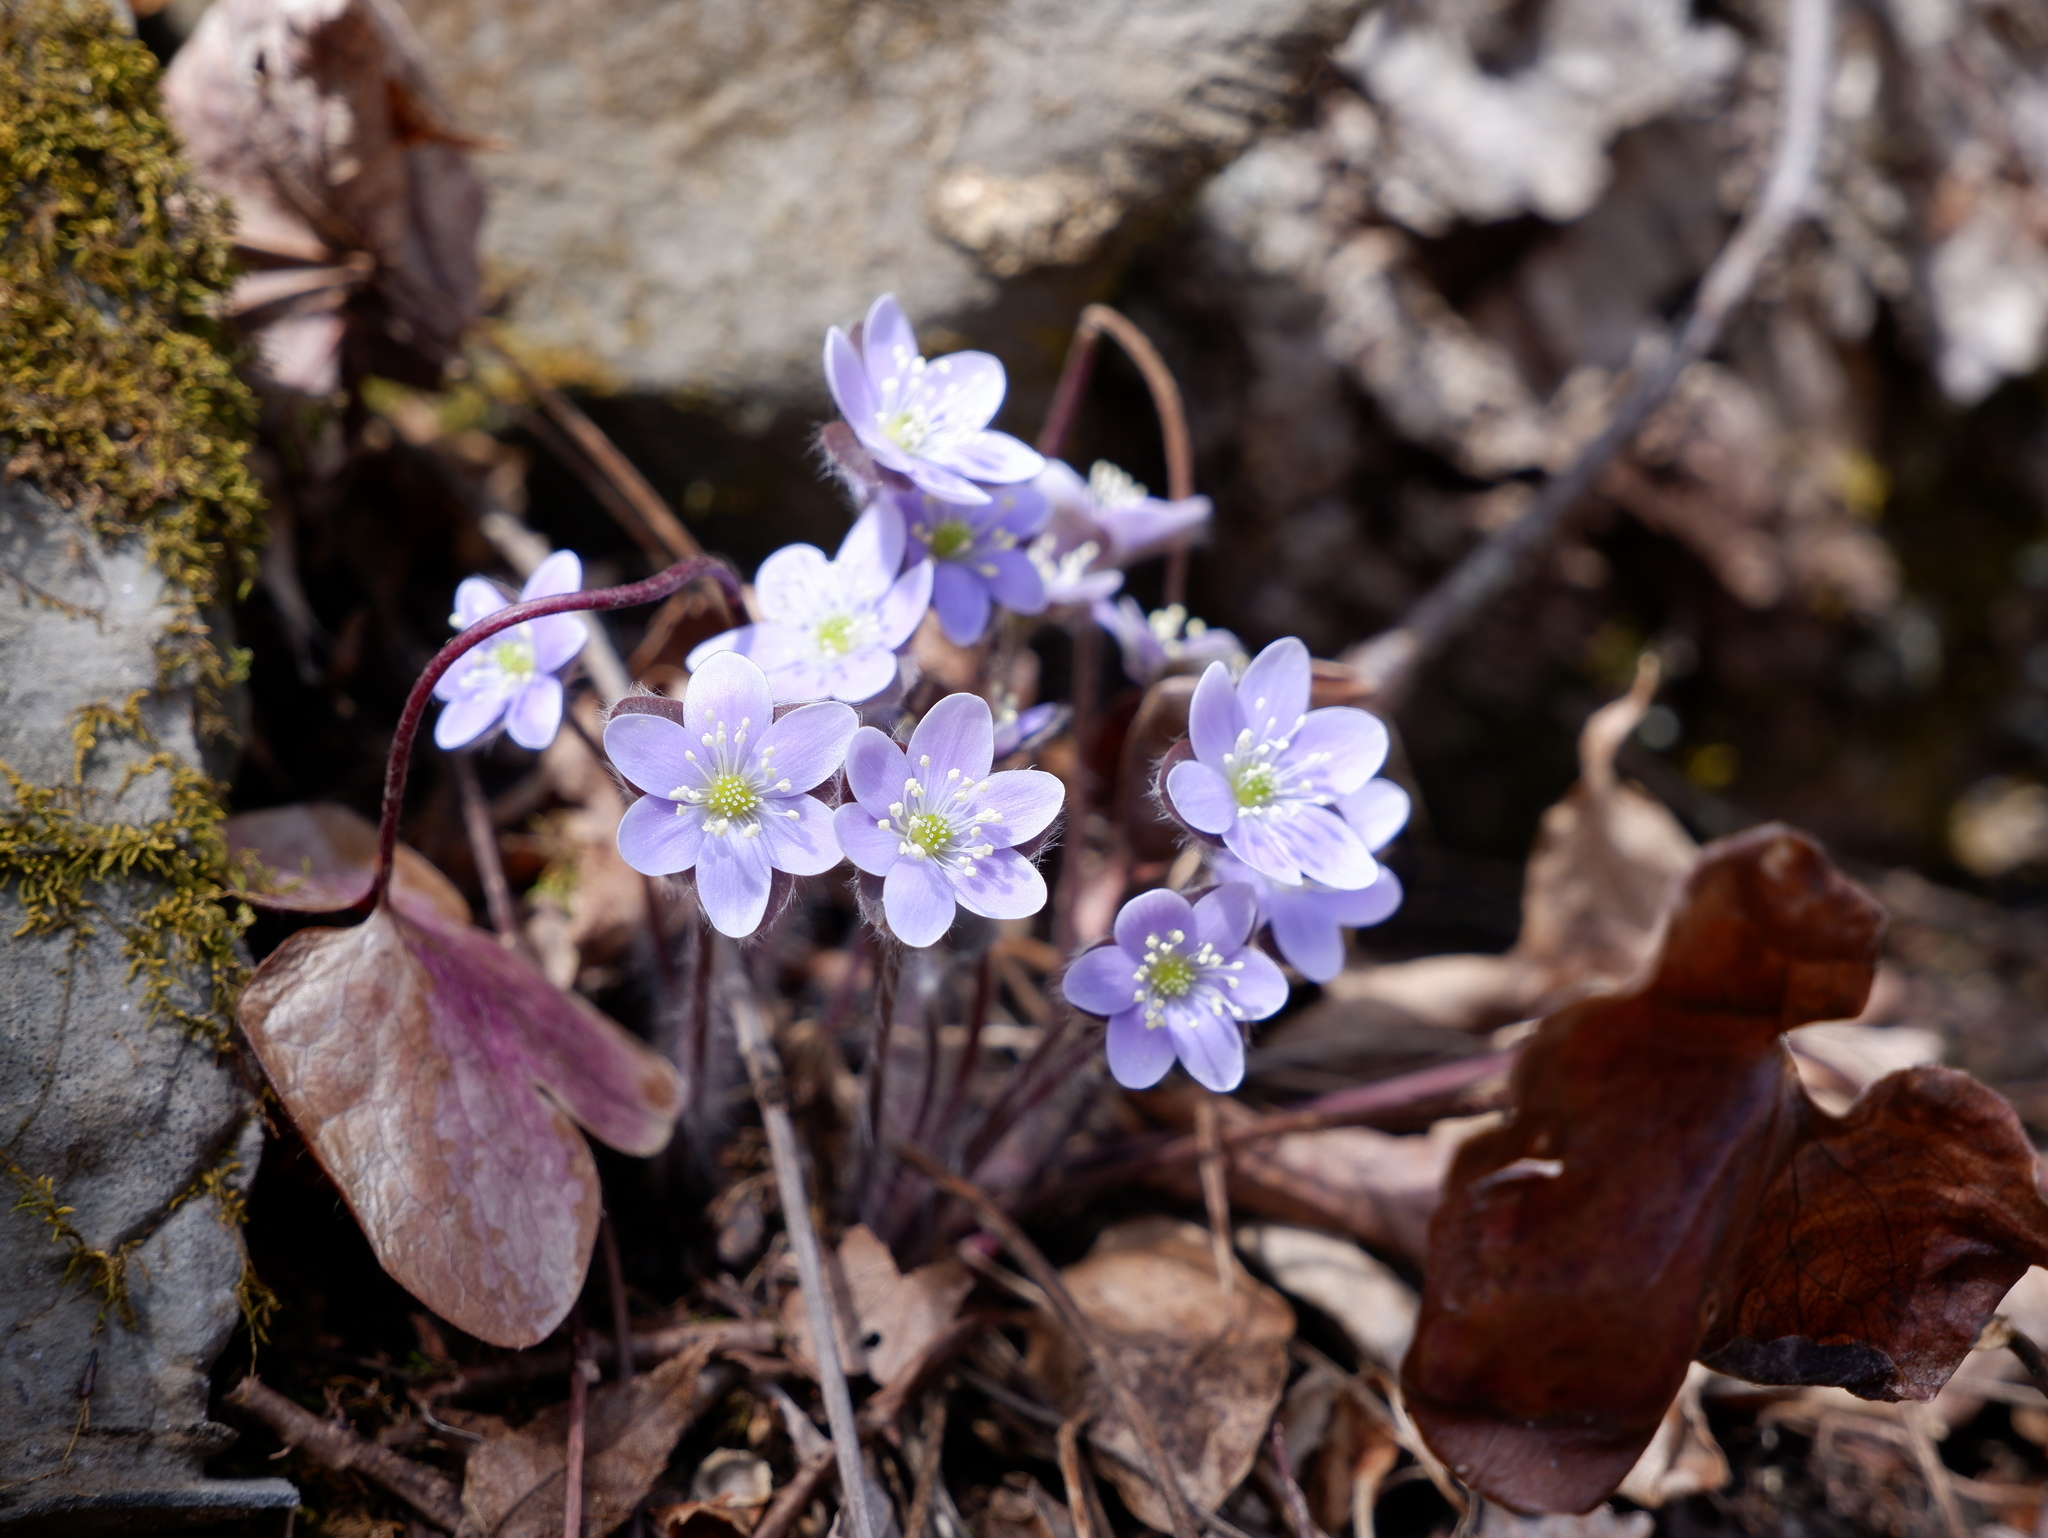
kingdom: Plantae
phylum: Tracheophyta
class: Magnoliopsida
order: Ranunculales
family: Ranunculaceae
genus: Hepatica
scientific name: Hepatica americana
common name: American hepatica
